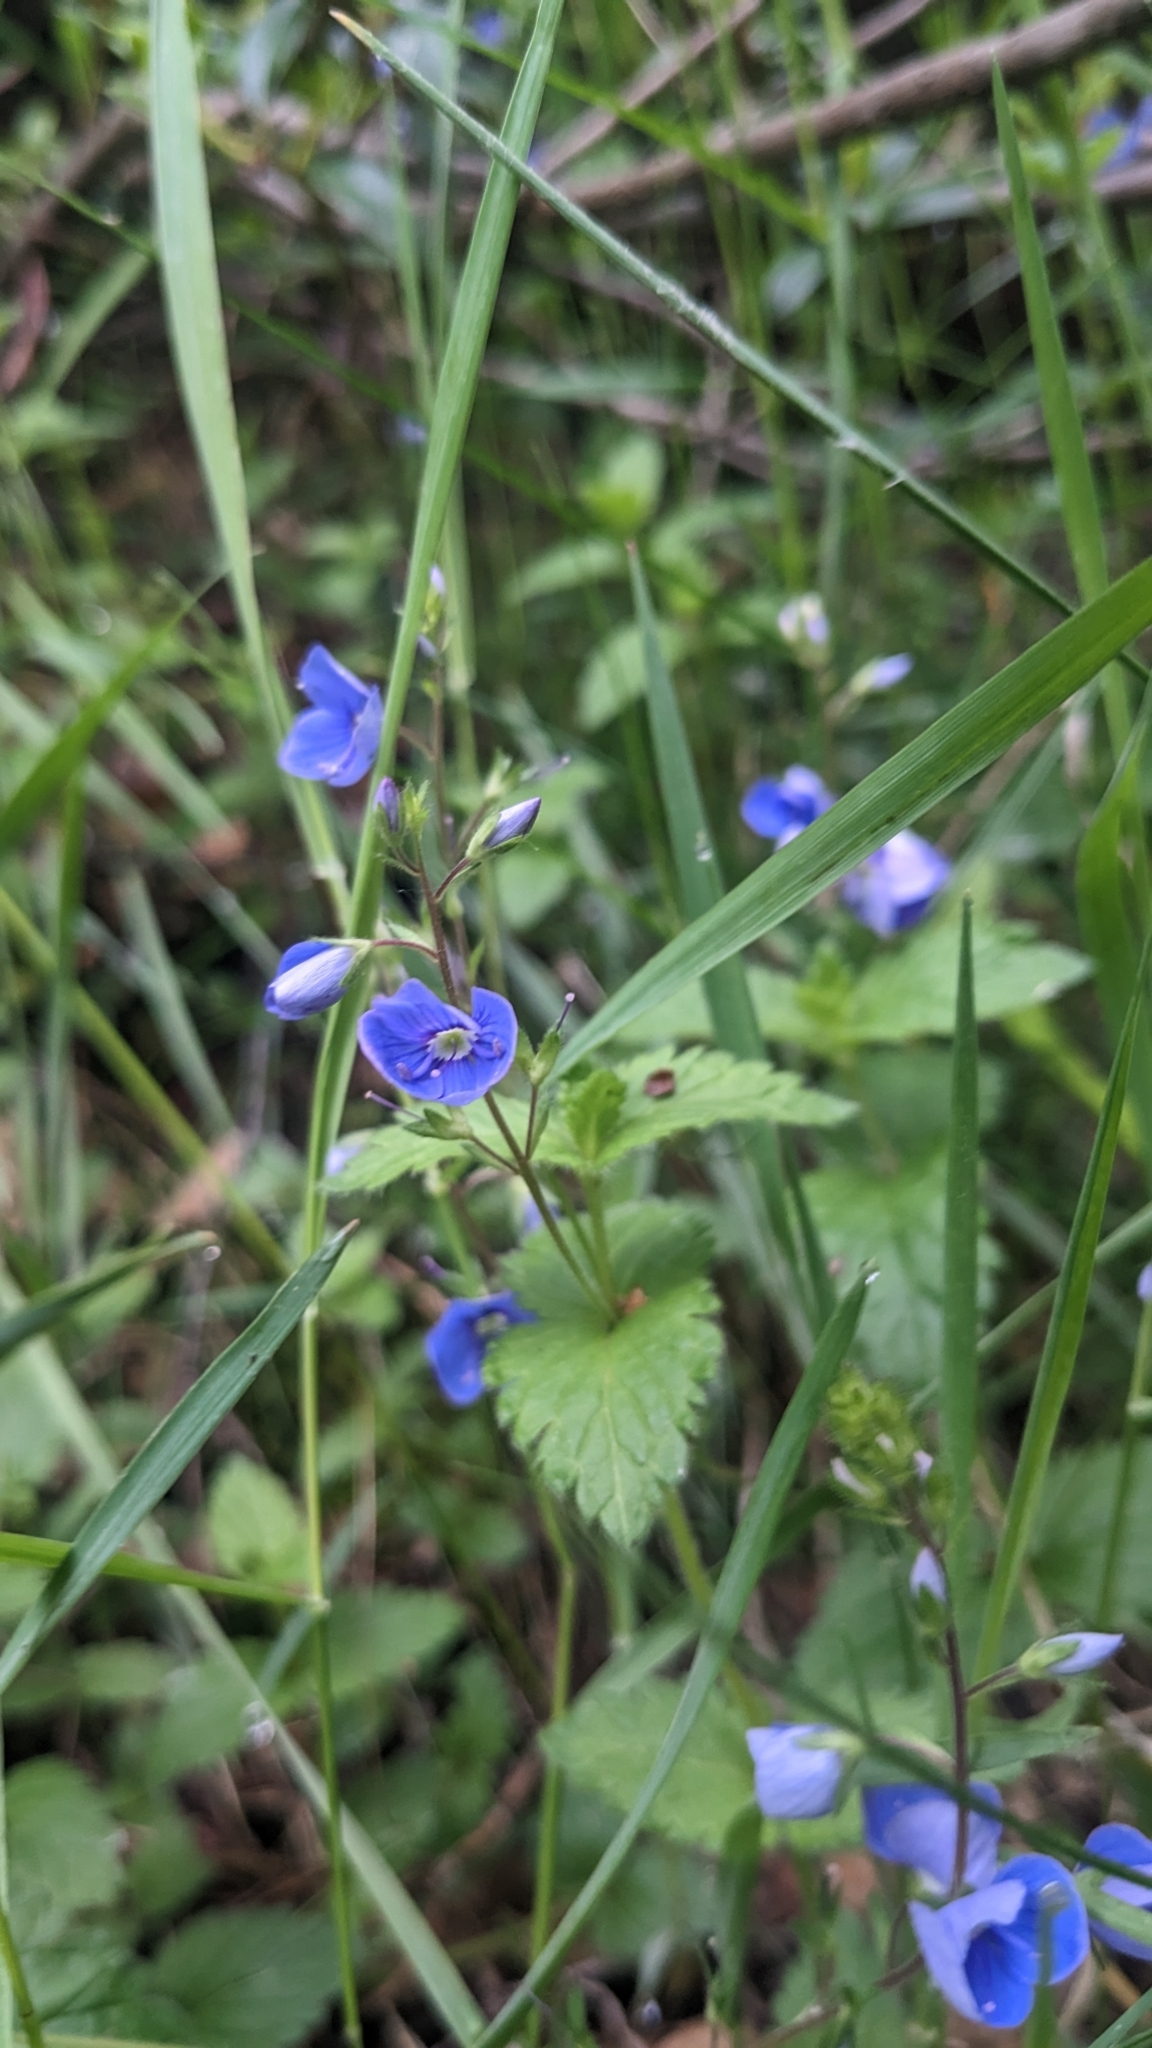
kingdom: Plantae
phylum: Tracheophyta
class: Magnoliopsida
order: Lamiales
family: Plantaginaceae
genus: Veronica
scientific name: Veronica chamaedrys
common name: Germander speedwell
